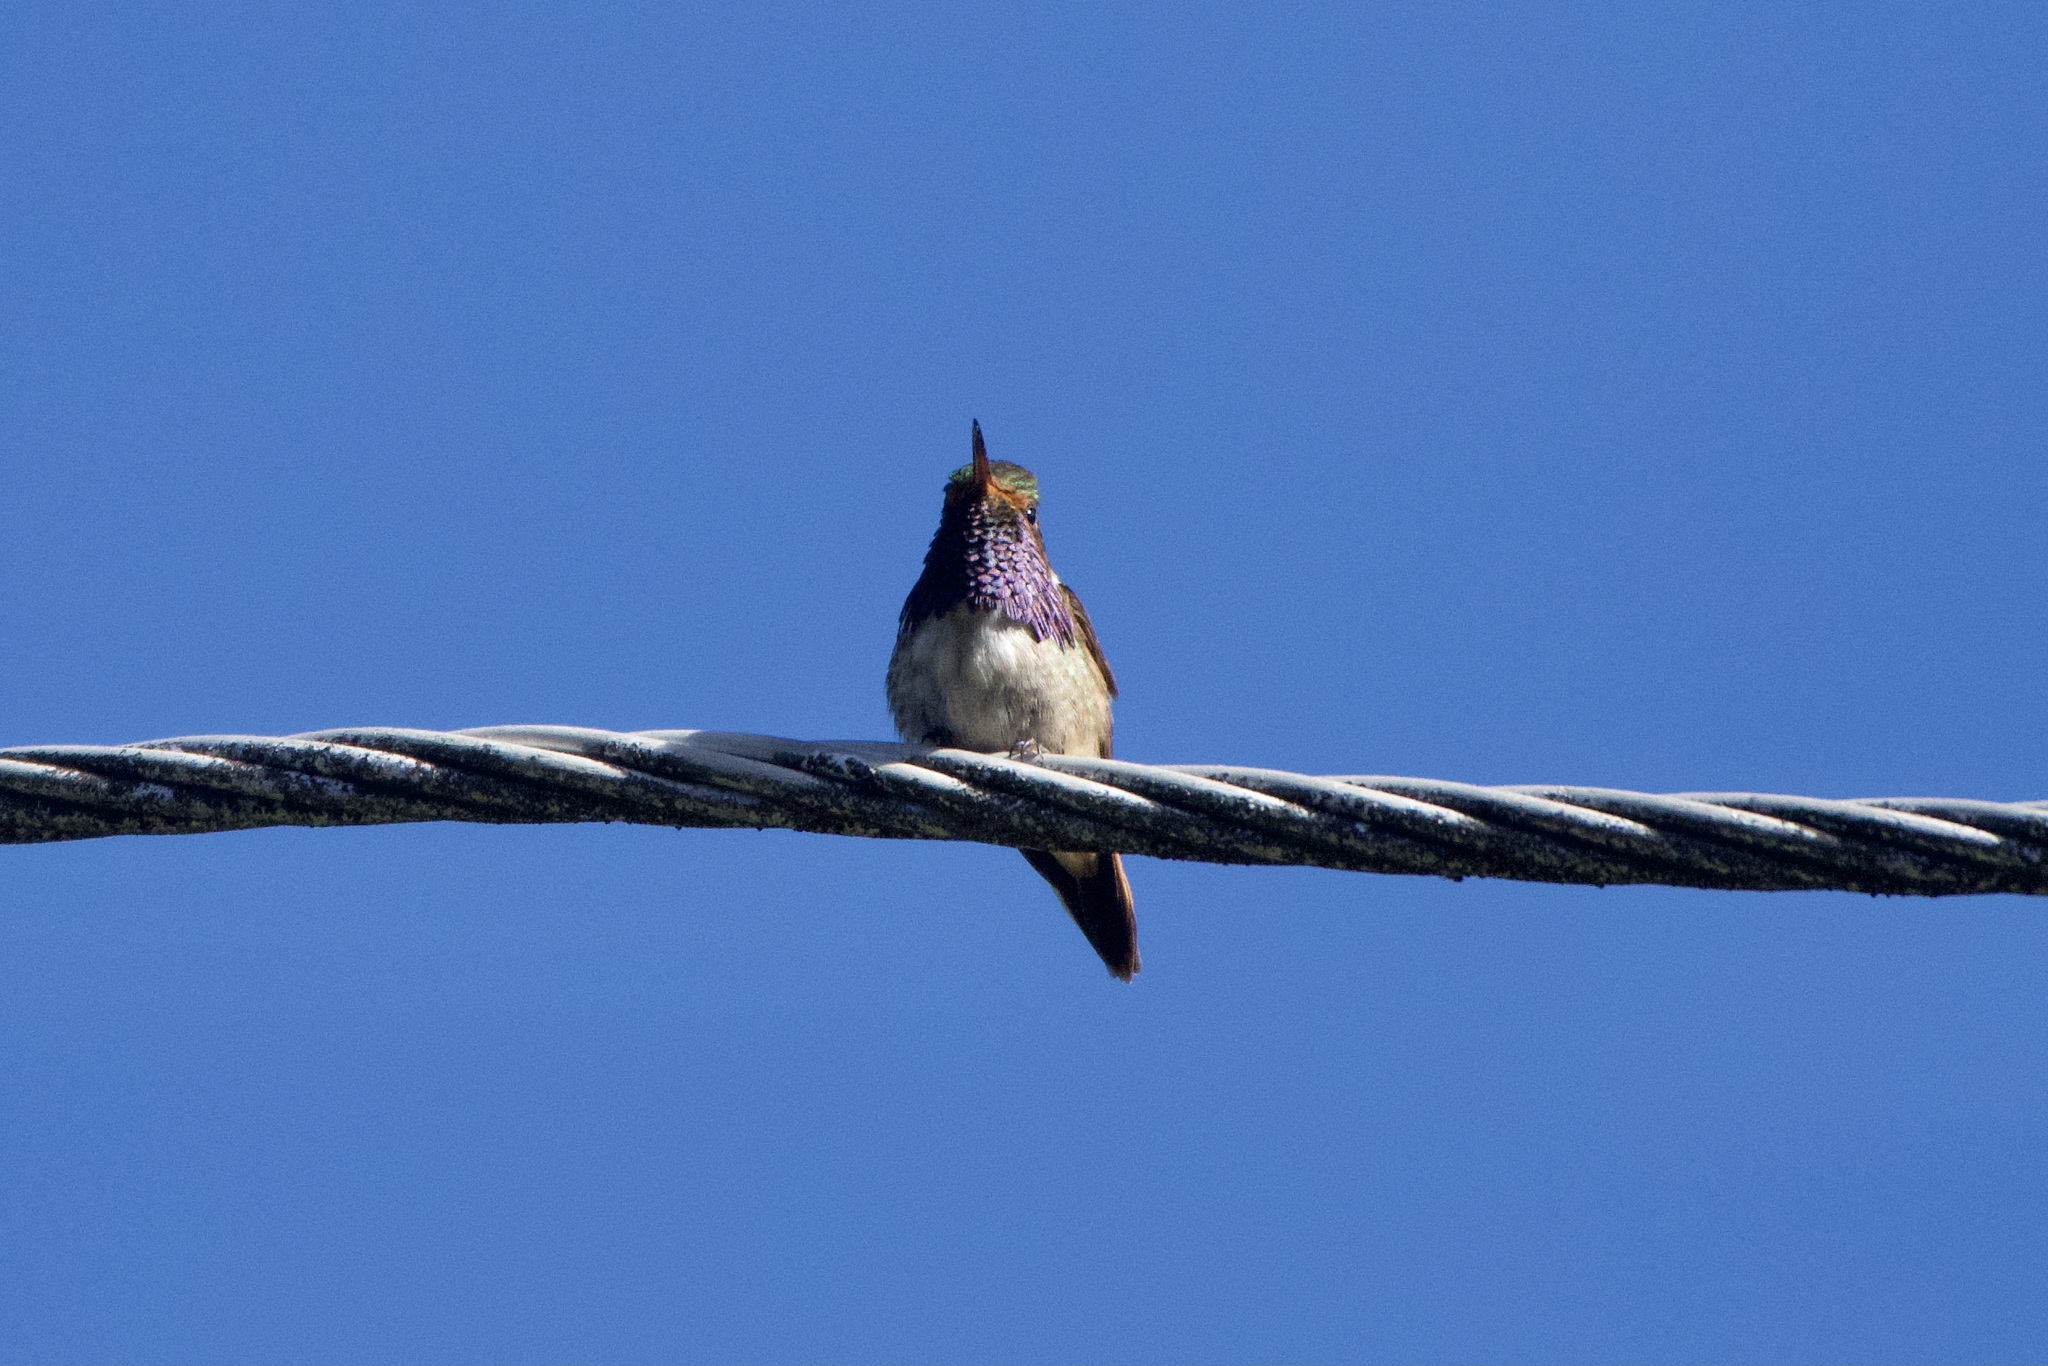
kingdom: Animalia
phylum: Chordata
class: Aves
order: Apodiformes
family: Trochilidae
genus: Selasphorus
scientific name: Selasphorus flammula
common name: Volcano hummingbird
